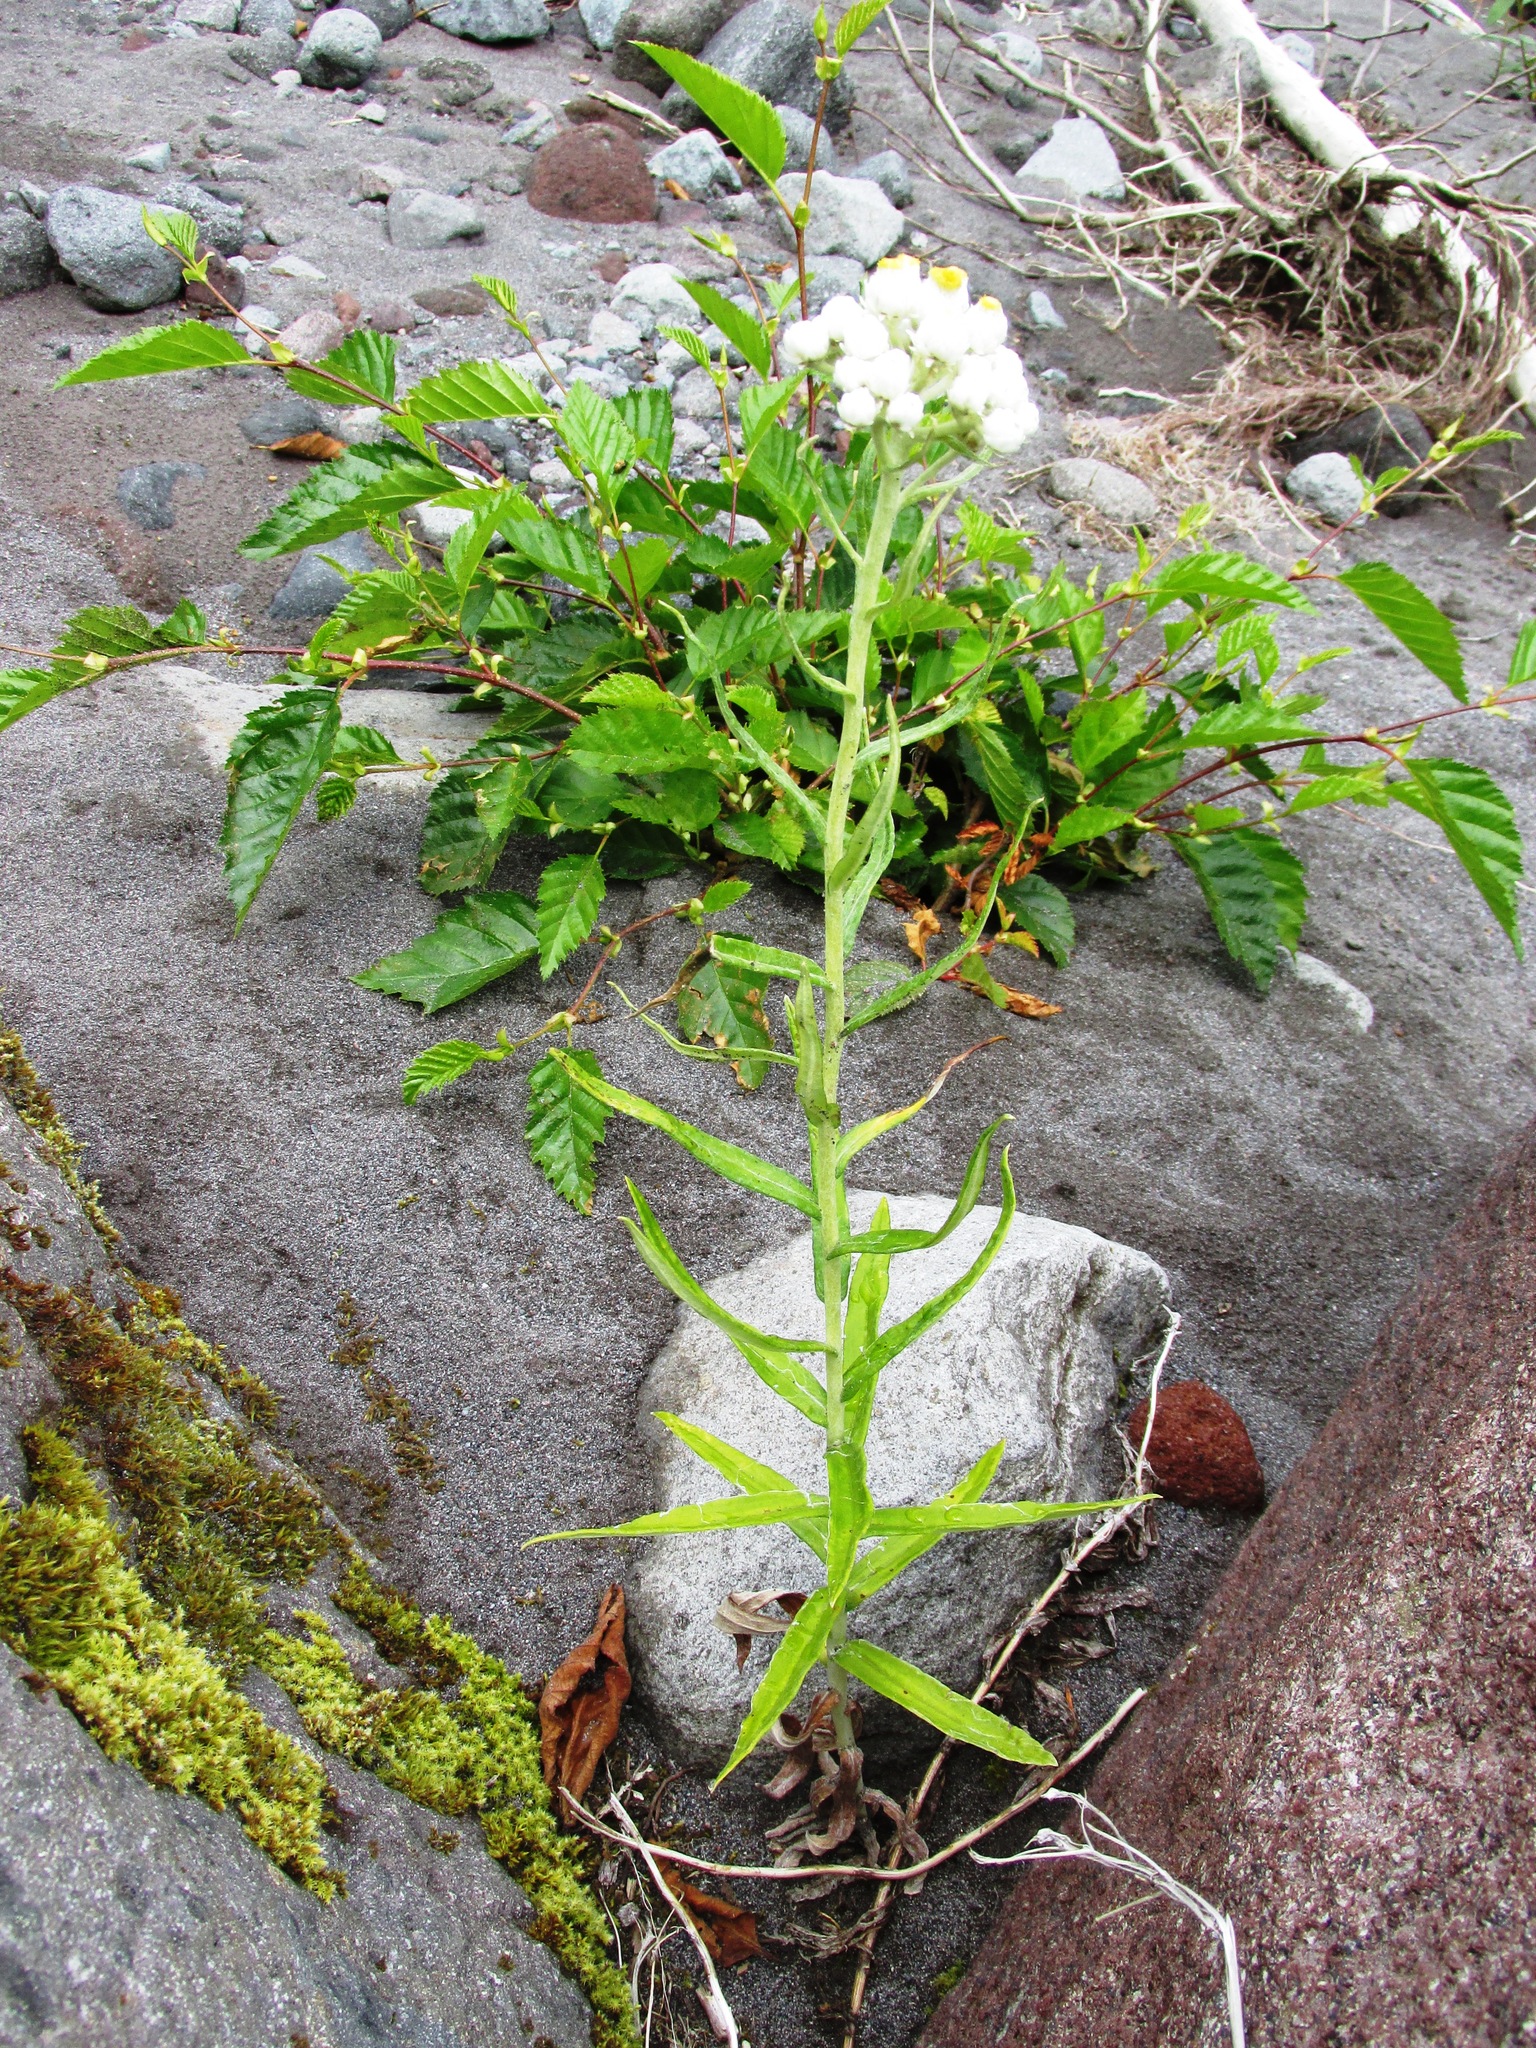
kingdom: Plantae
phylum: Tracheophyta
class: Magnoliopsida
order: Asterales
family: Asteraceae
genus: Anaphalis
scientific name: Anaphalis margaritacea
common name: Pearly everlasting
